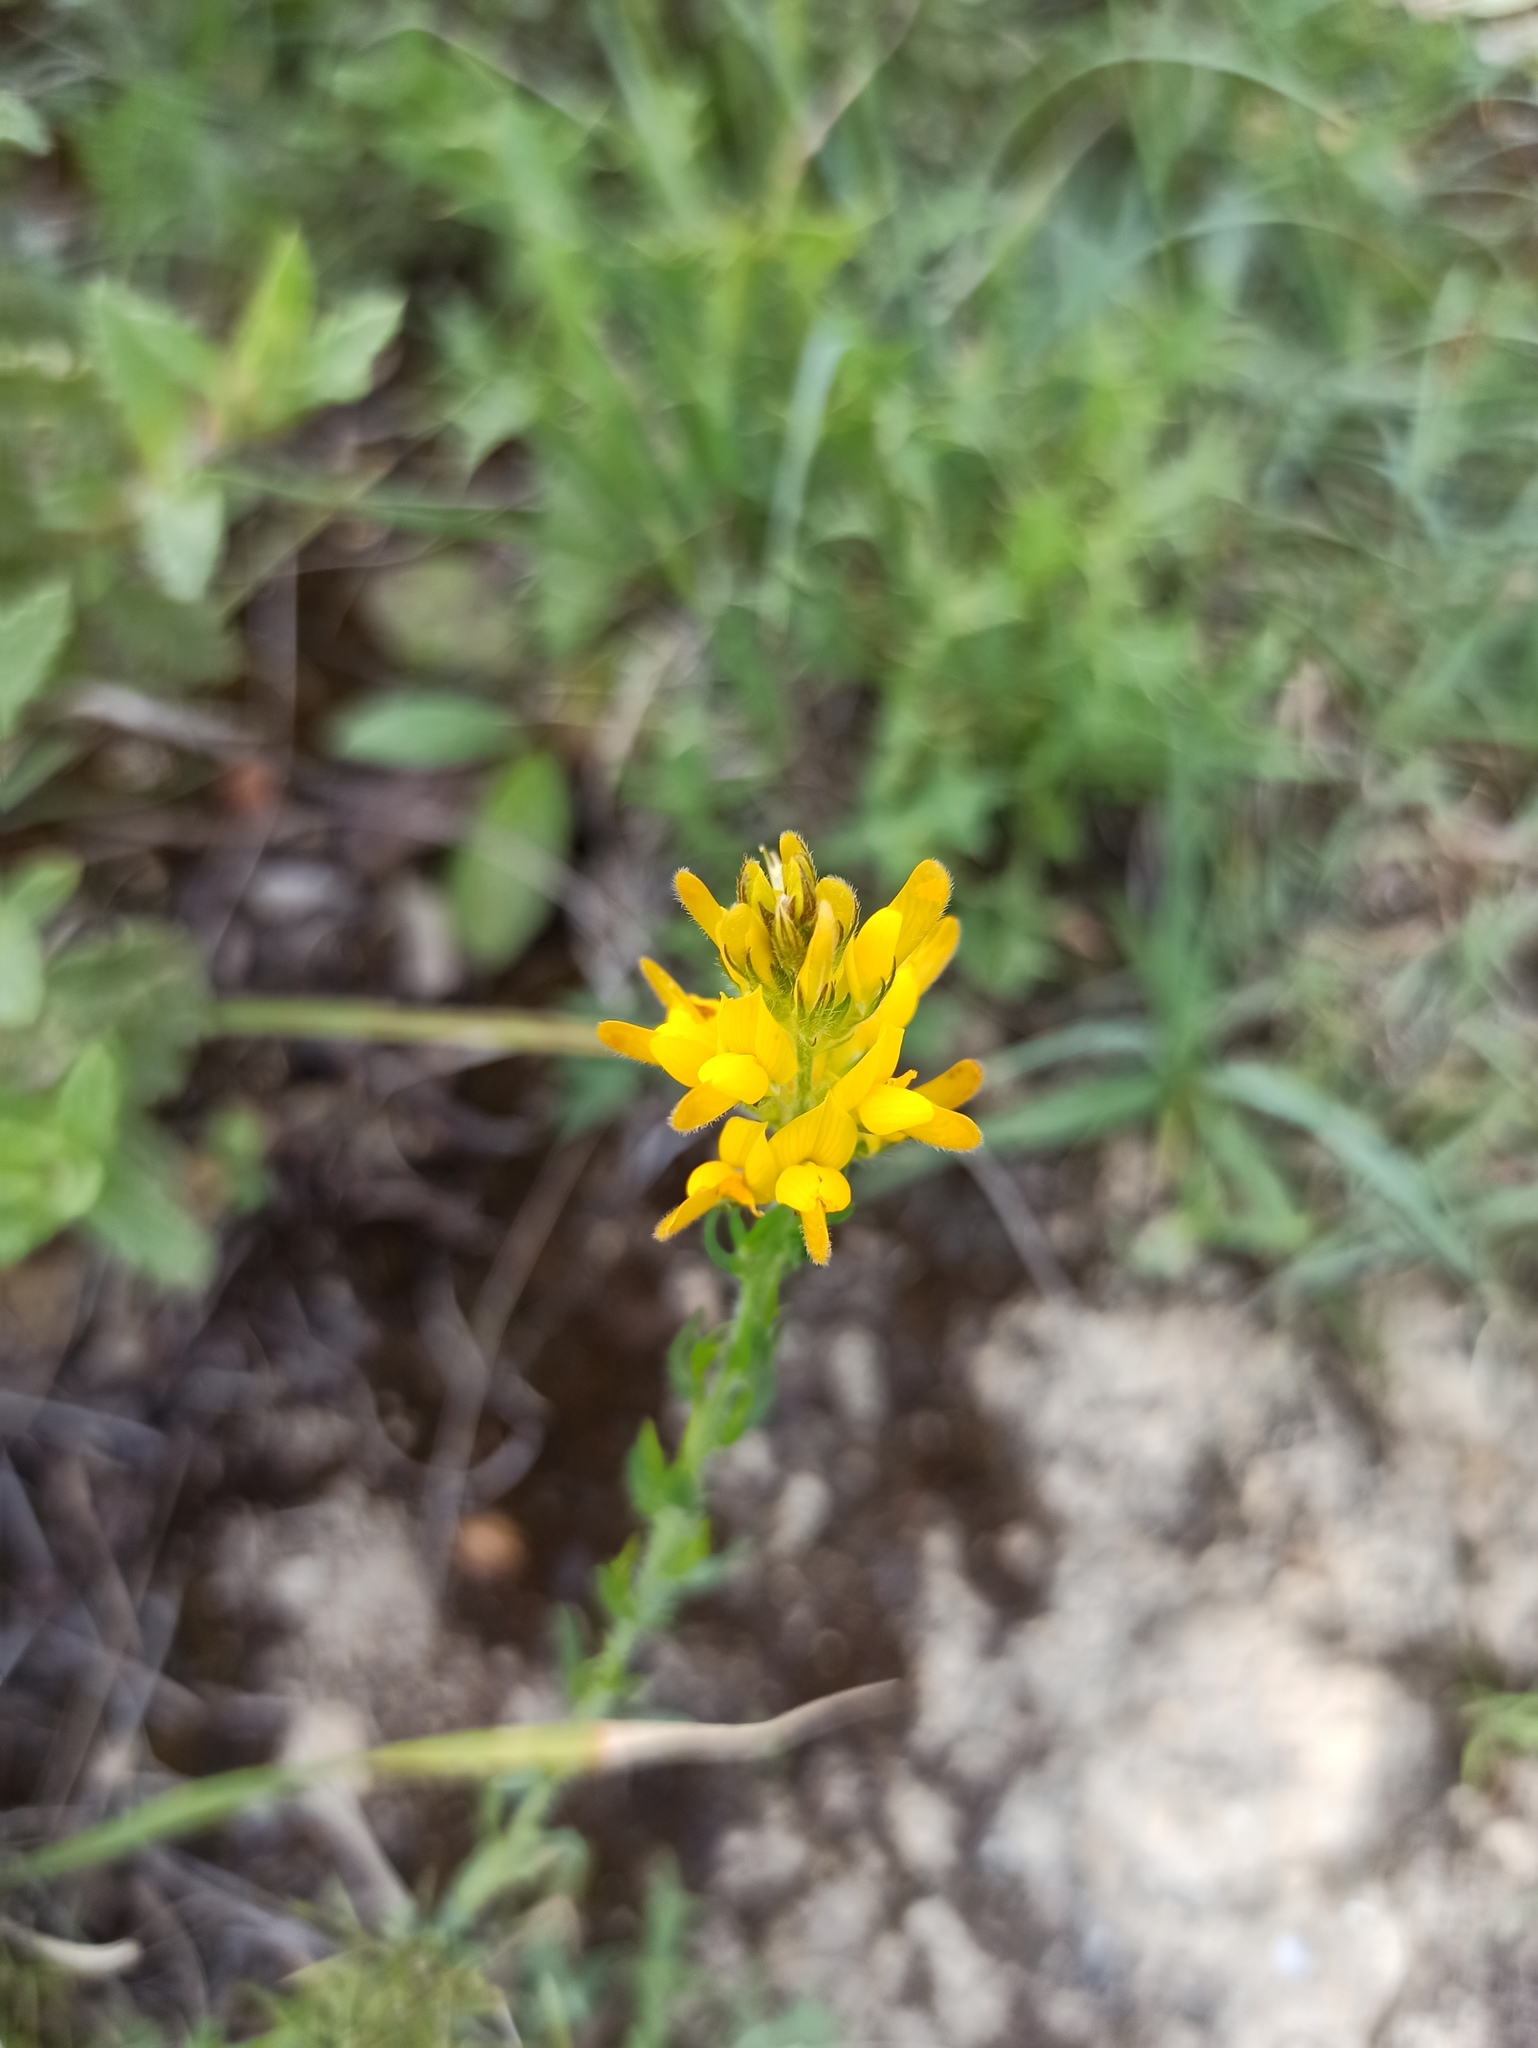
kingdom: Plantae
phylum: Tracheophyta
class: Magnoliopsida
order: Fabales
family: Fabaceae
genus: Genista
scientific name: Genista tournefortii
